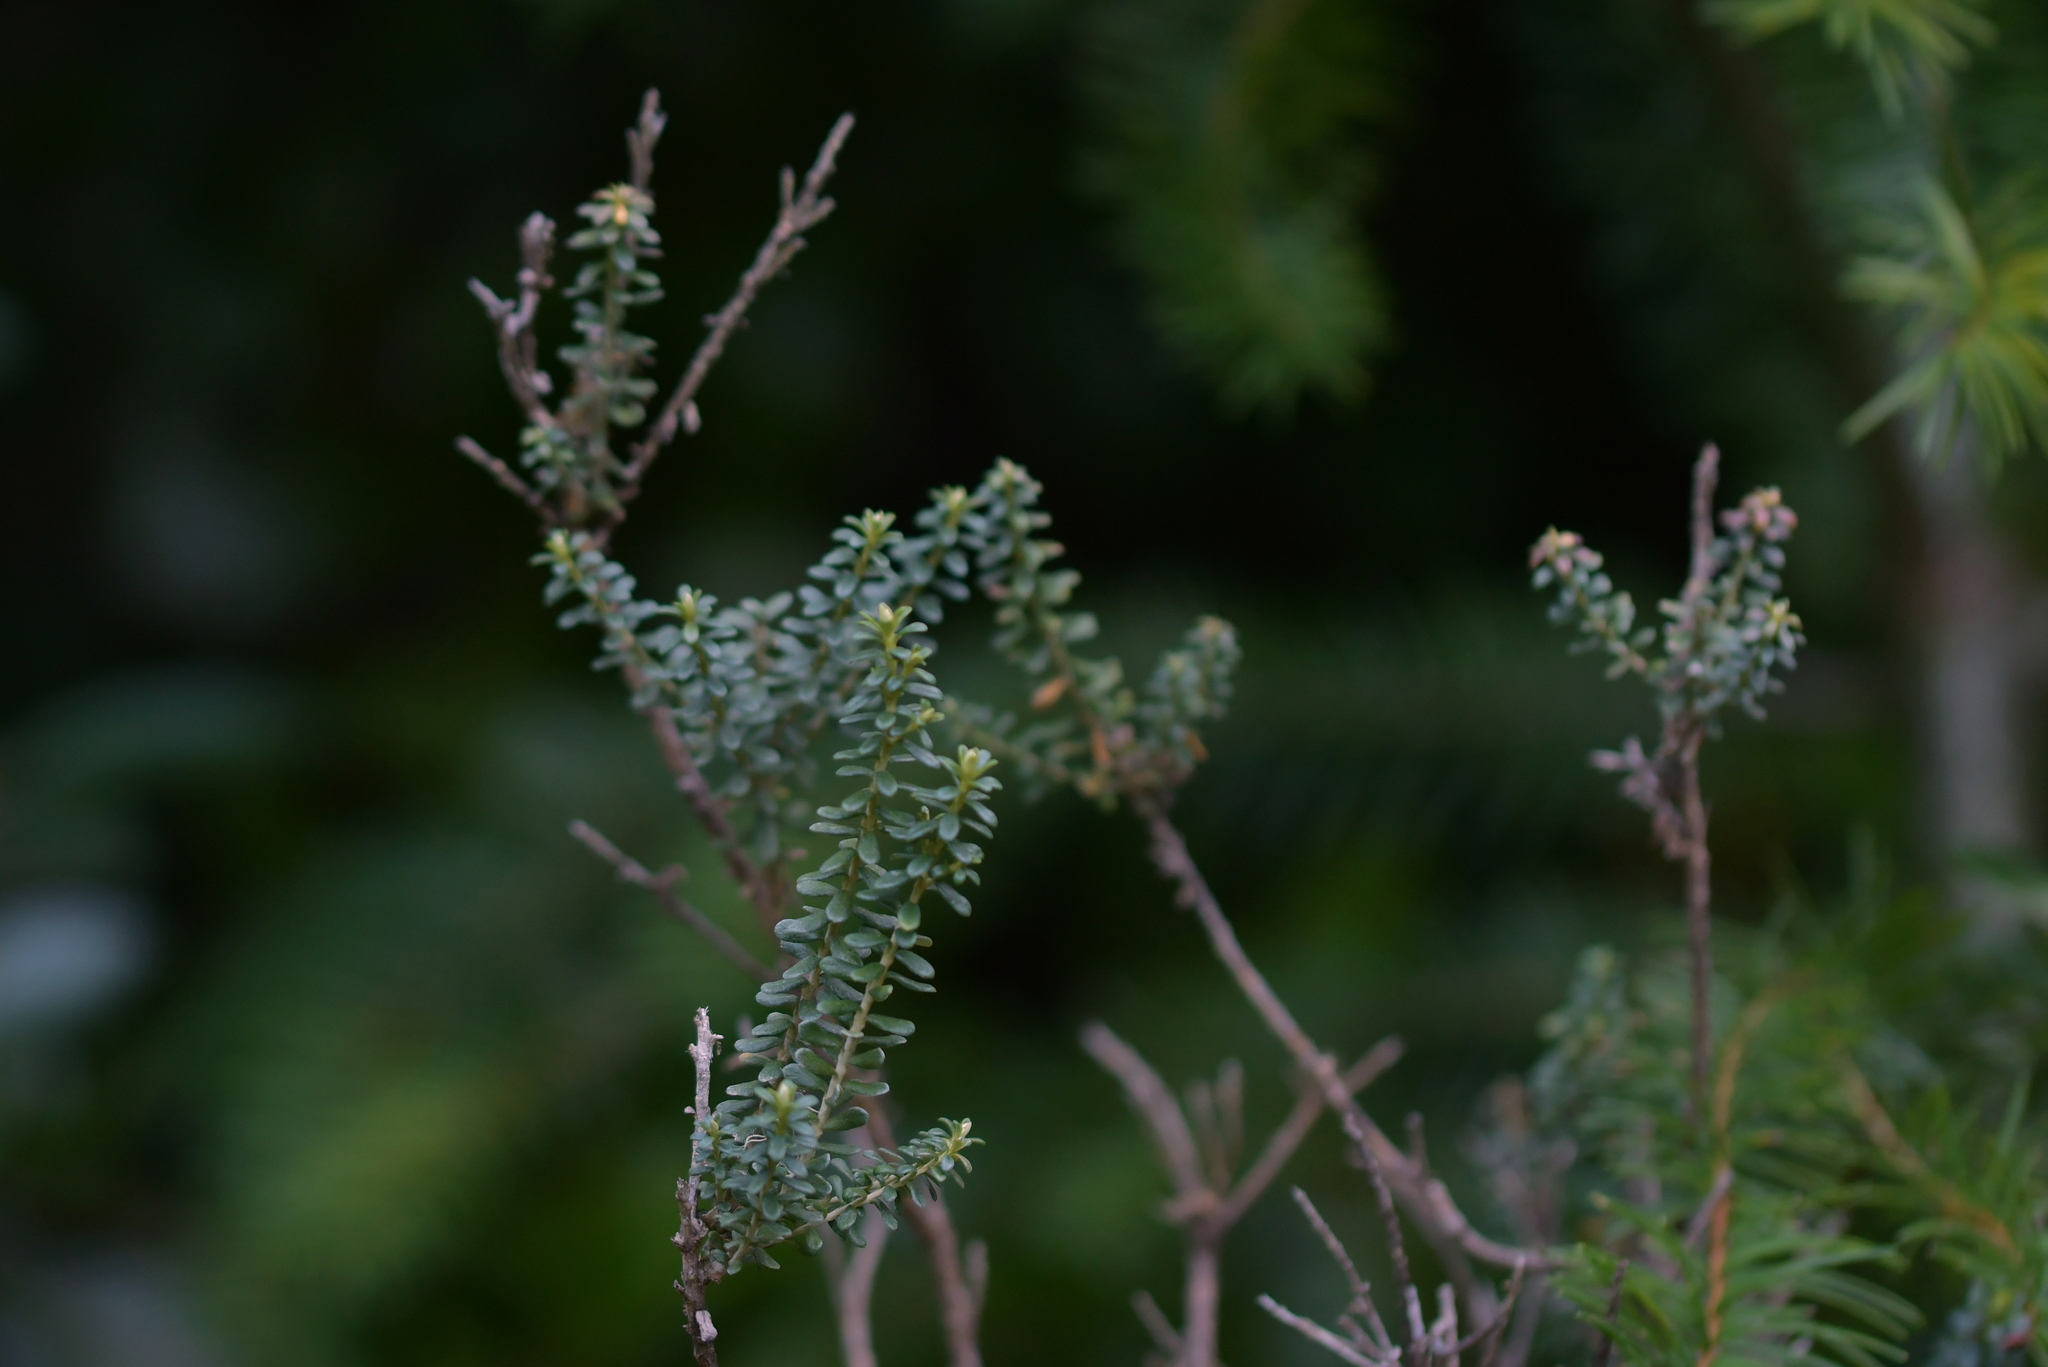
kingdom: Plantae
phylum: Tracheophyta
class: Magnoliopsida
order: Asterales
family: Asteraceae
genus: Ozothamnus
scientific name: Ozothamnus leptophyllus
